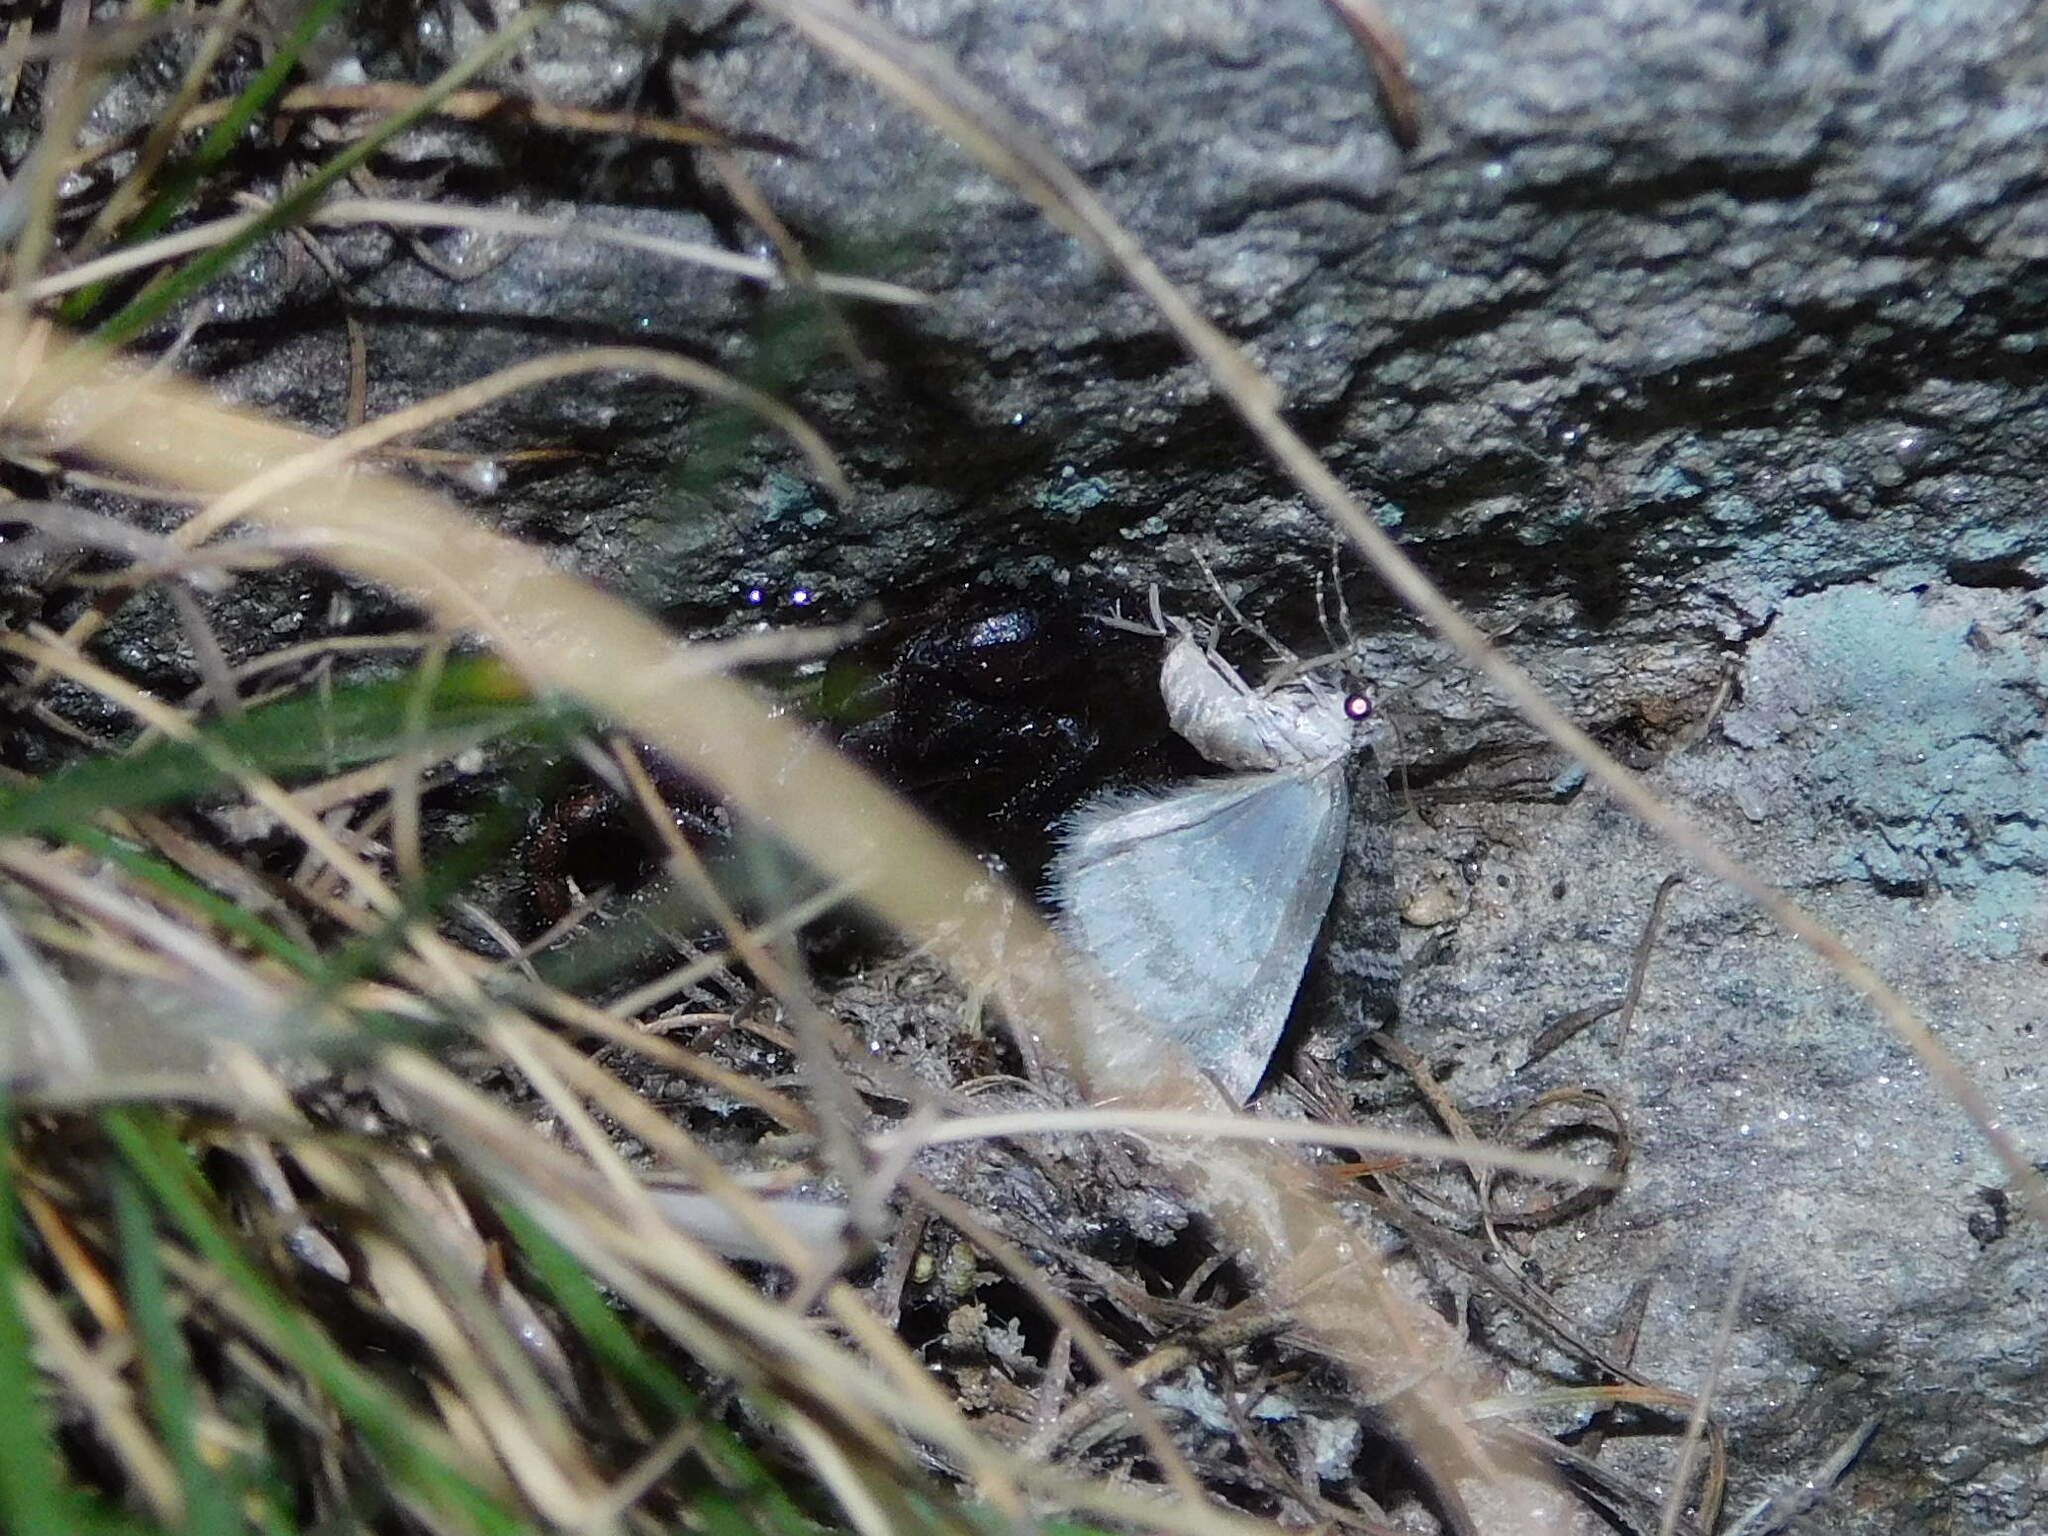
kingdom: Animalia
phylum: Arthropoda
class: Arachnida
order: Scorpiones
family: Euscorpiidae
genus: Alpiscorpius
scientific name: Alpiscorpius alpha
